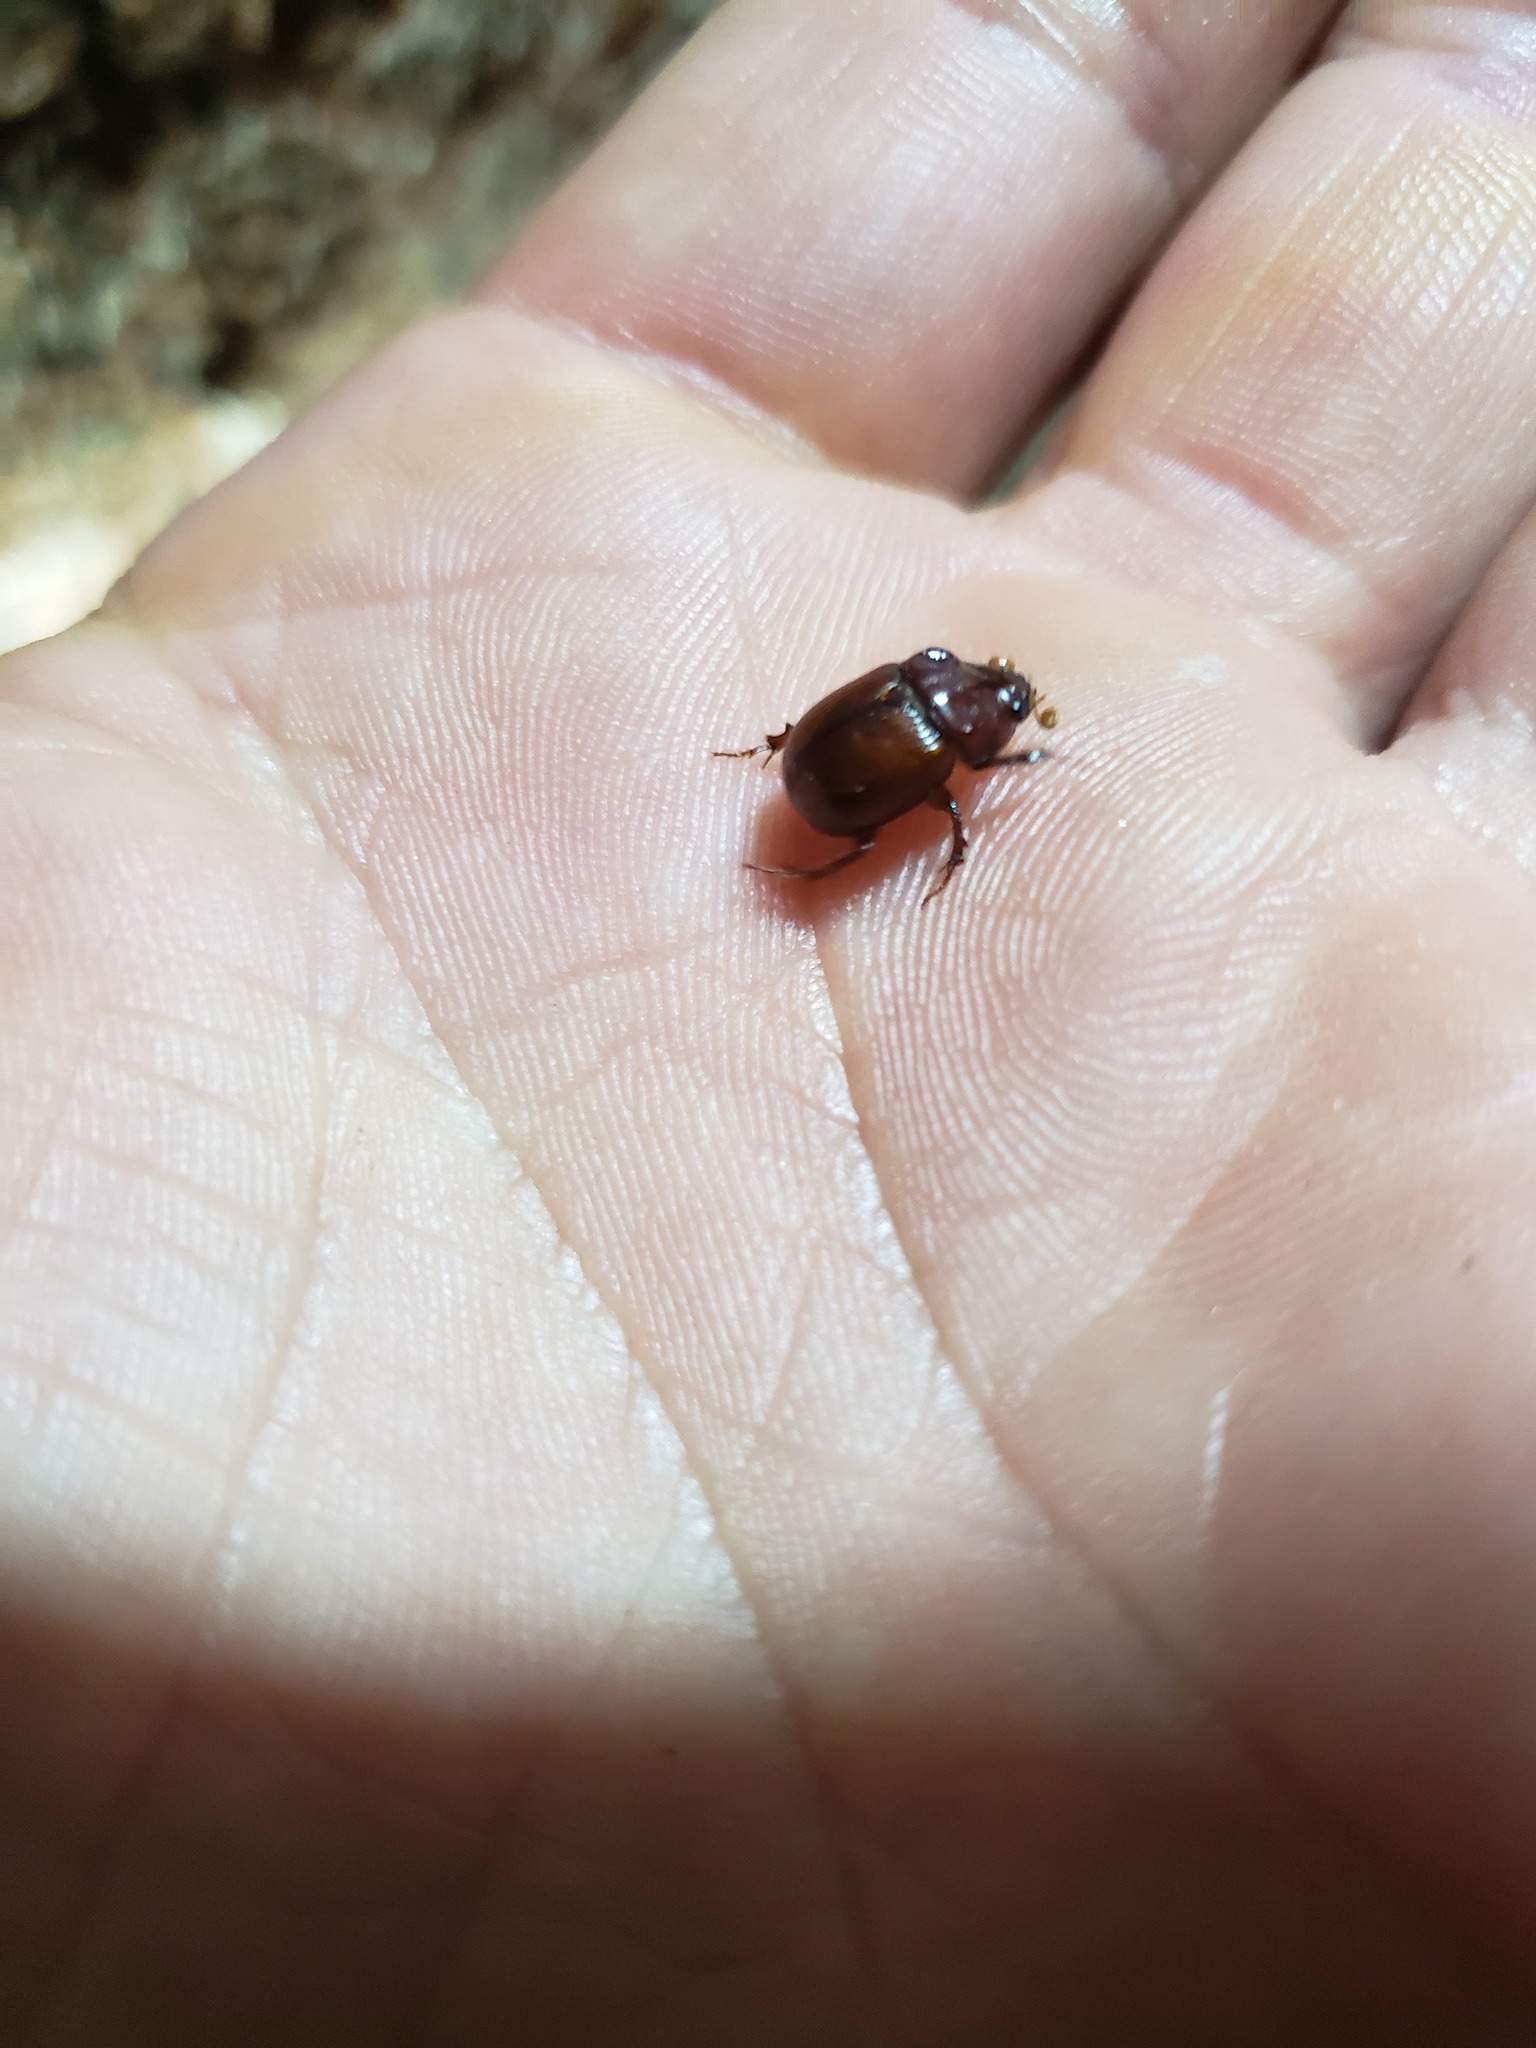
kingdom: Animalia
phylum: Arthropoda
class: Insecta
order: Coleoptera
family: Geotrupidae
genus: Odonteus
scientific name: Odonteus liebecki
